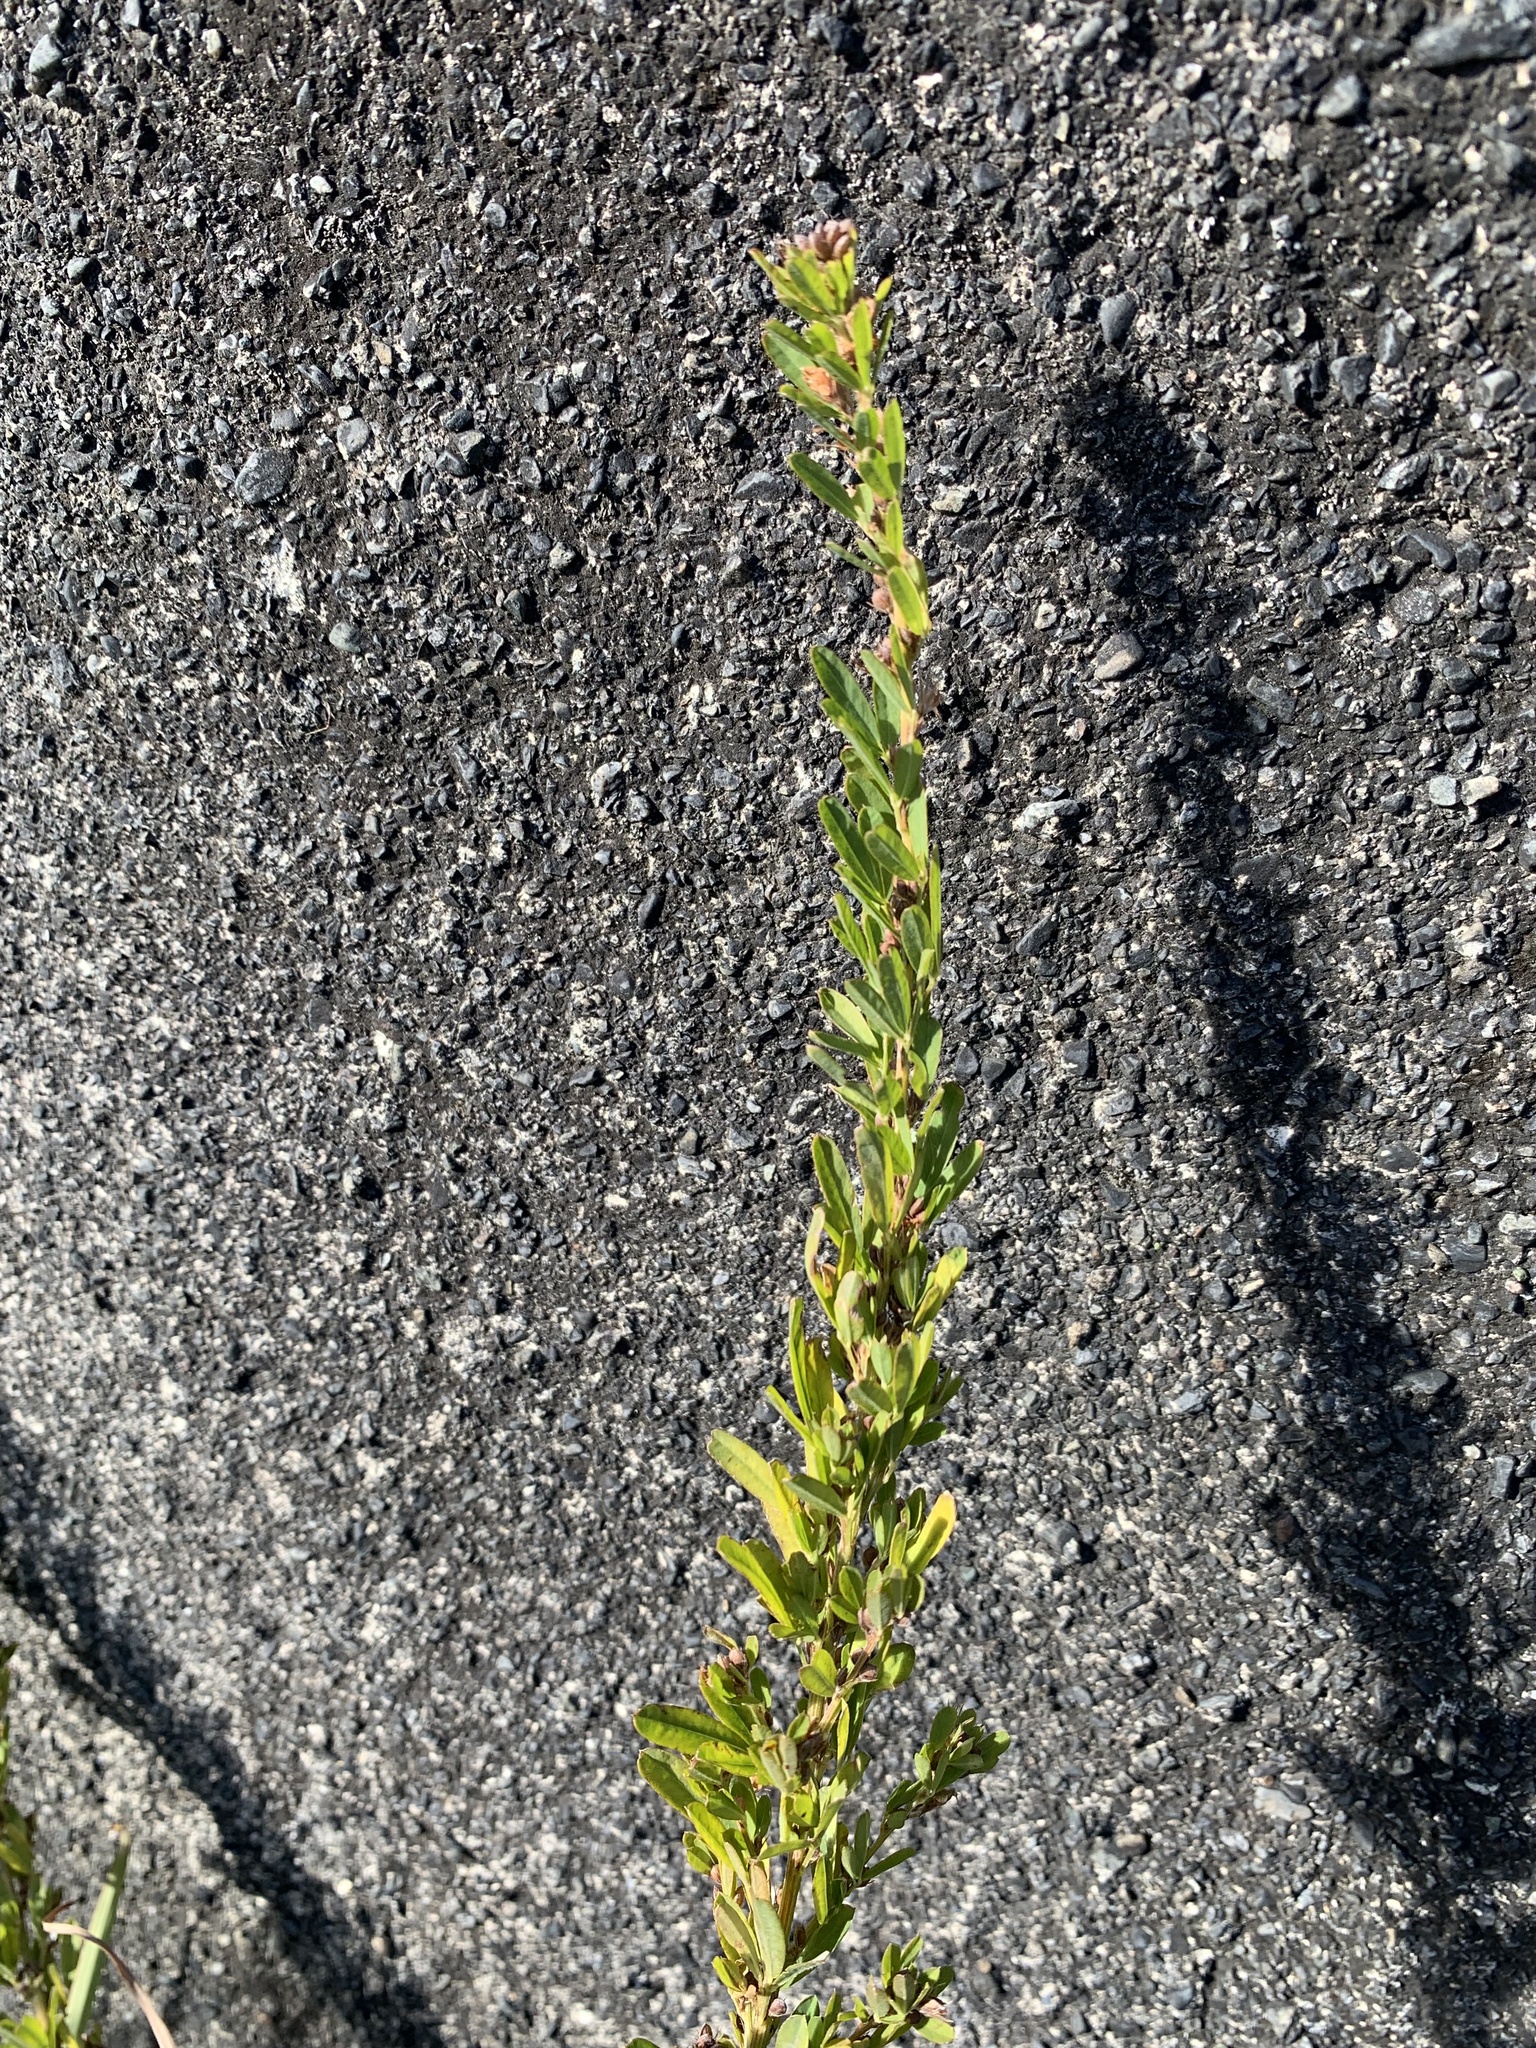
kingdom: Plantae
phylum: Tracheophyta
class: Magnoliopsida
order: Fabales
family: Fabaceae
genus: Lespedeza
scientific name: Lespedeza cuneata
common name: Chinese bush-clover
